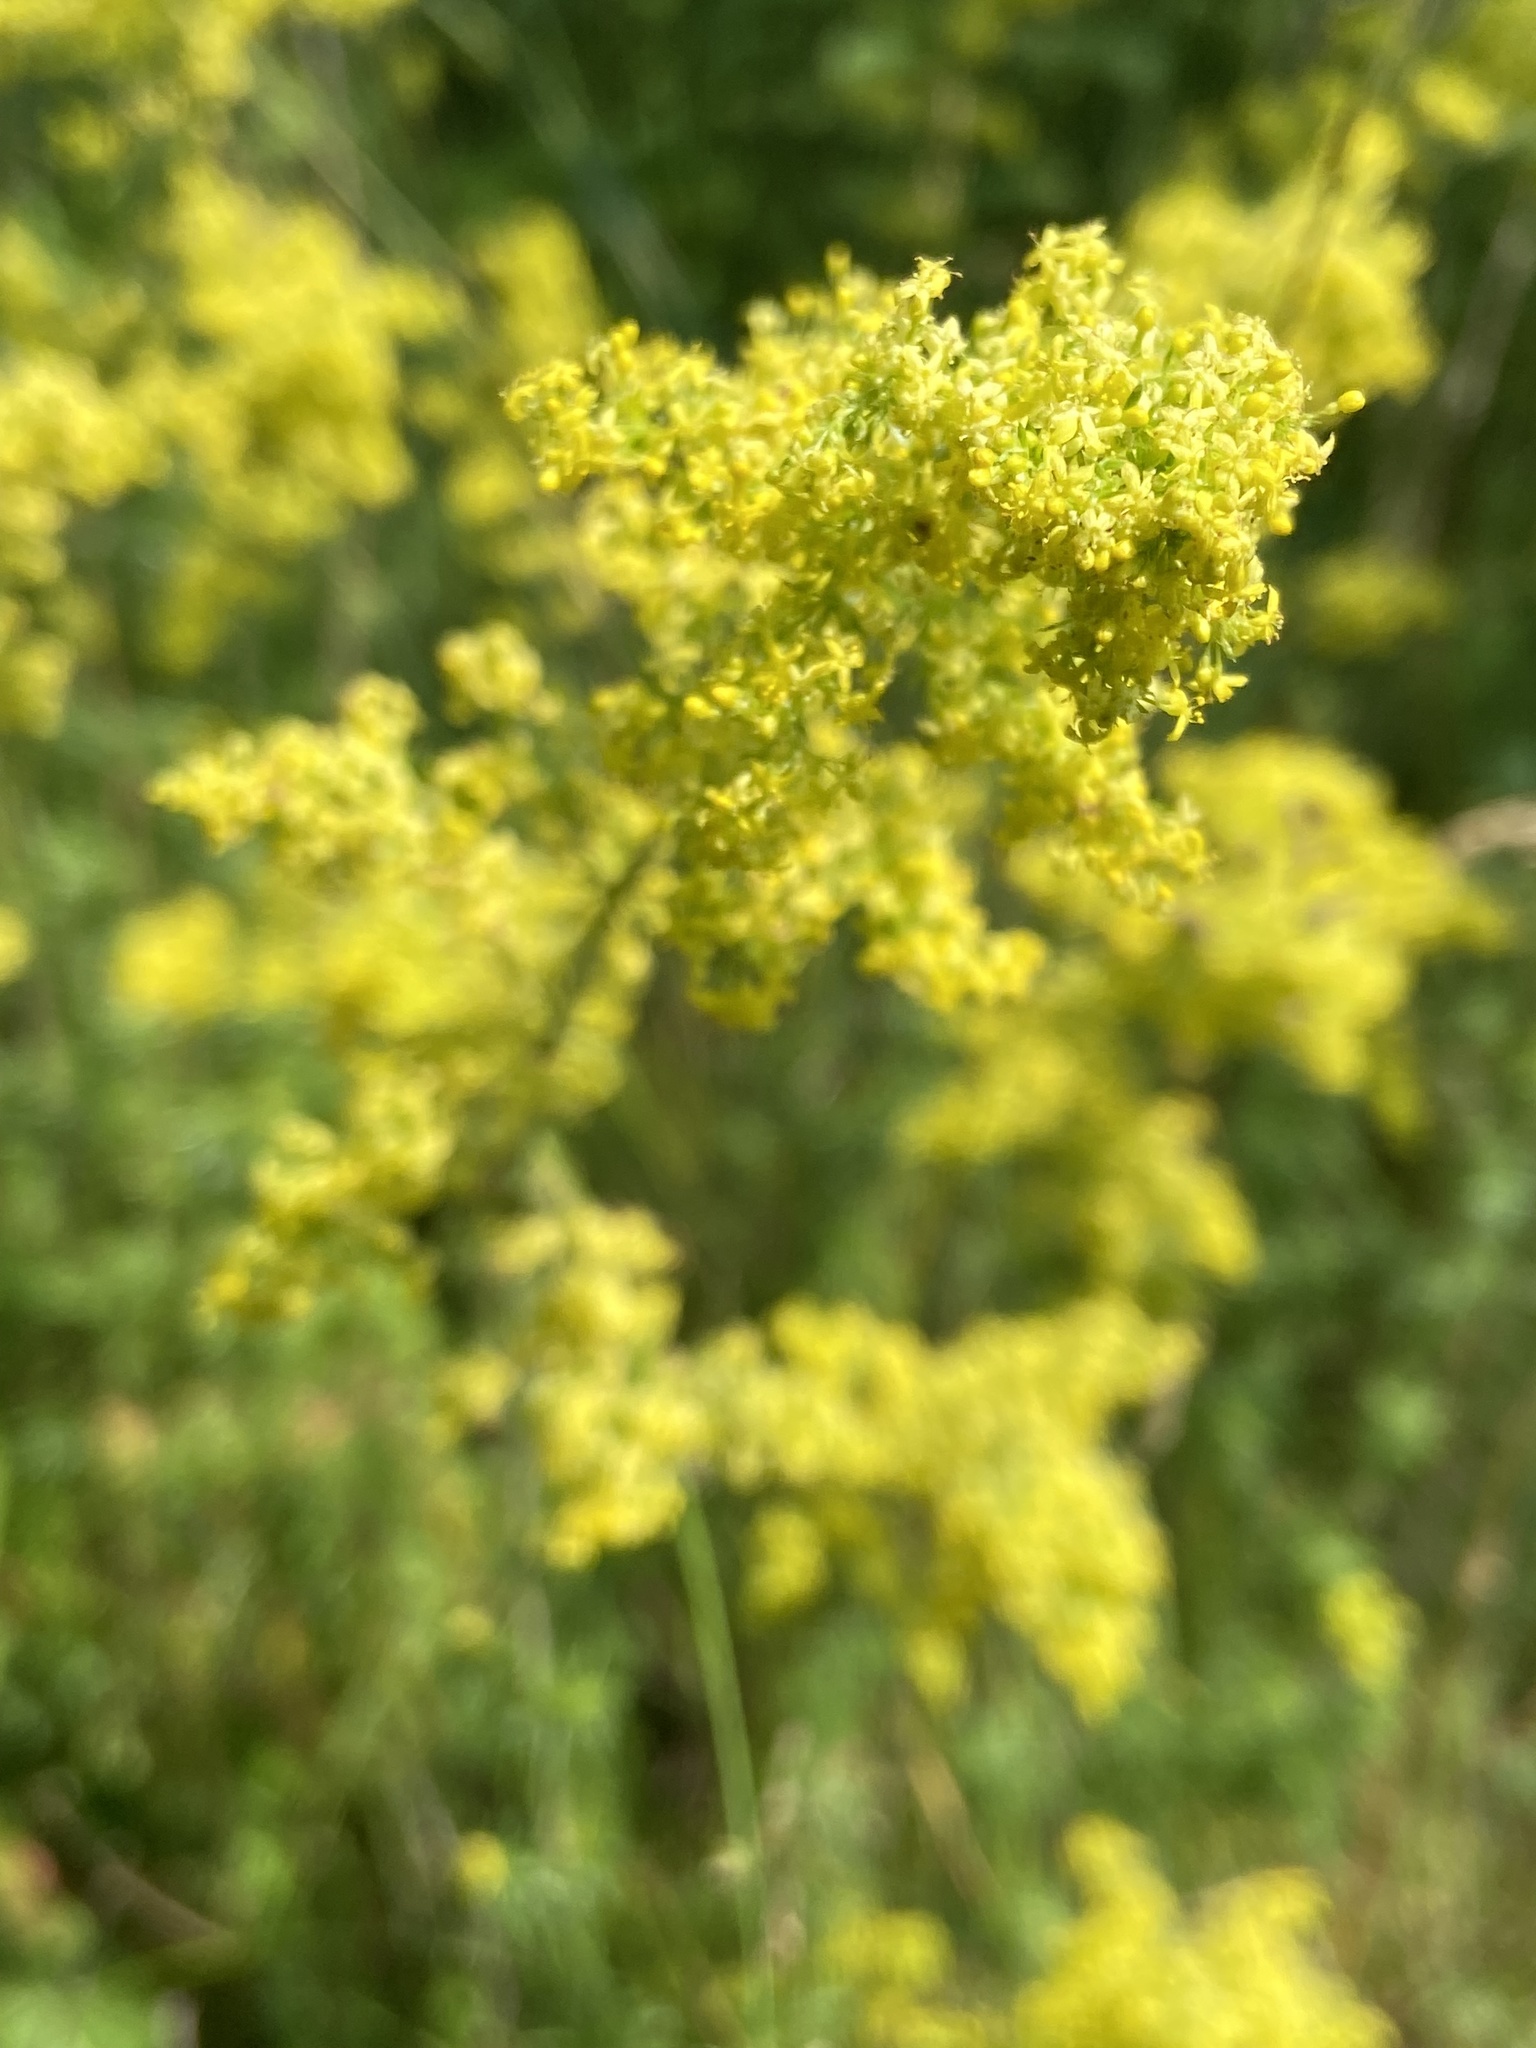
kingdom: Plantae
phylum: Tracheophyta
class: Magnoliopsida
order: Gentianales
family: Rubiaceae
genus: Galium
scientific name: Galium verum
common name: Lady's bedstraw
